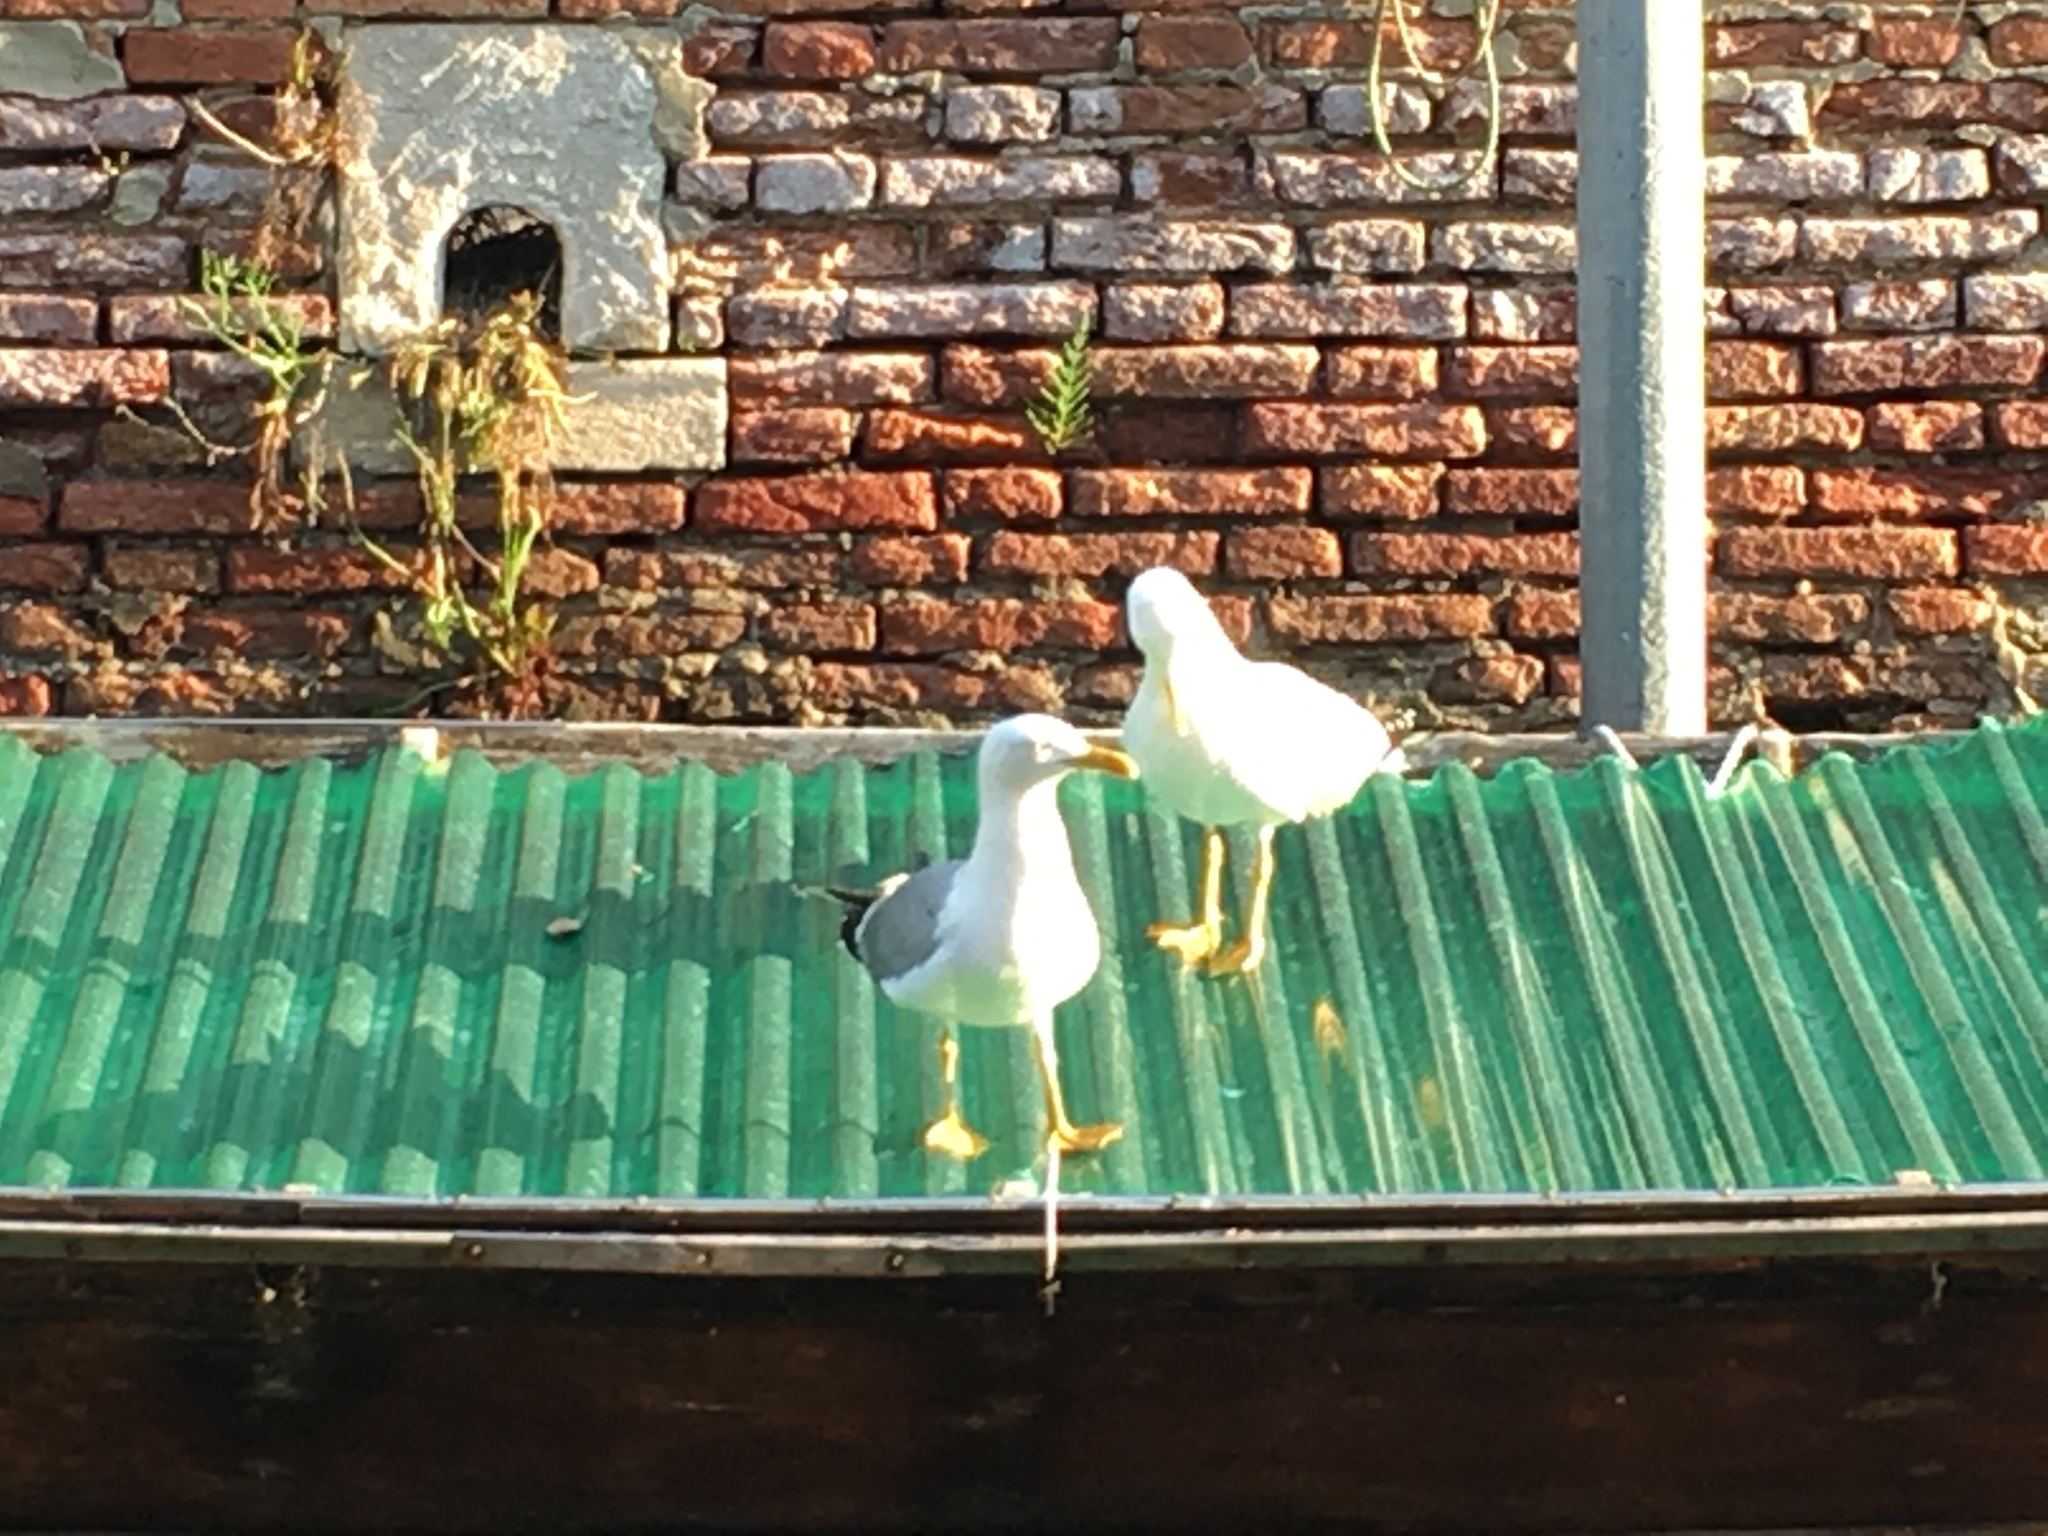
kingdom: Animalia
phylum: Chordata
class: Aves
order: Charadriiformes
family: Laridae
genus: Larus
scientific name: Larus michahellis
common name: Yellow-legged gull
